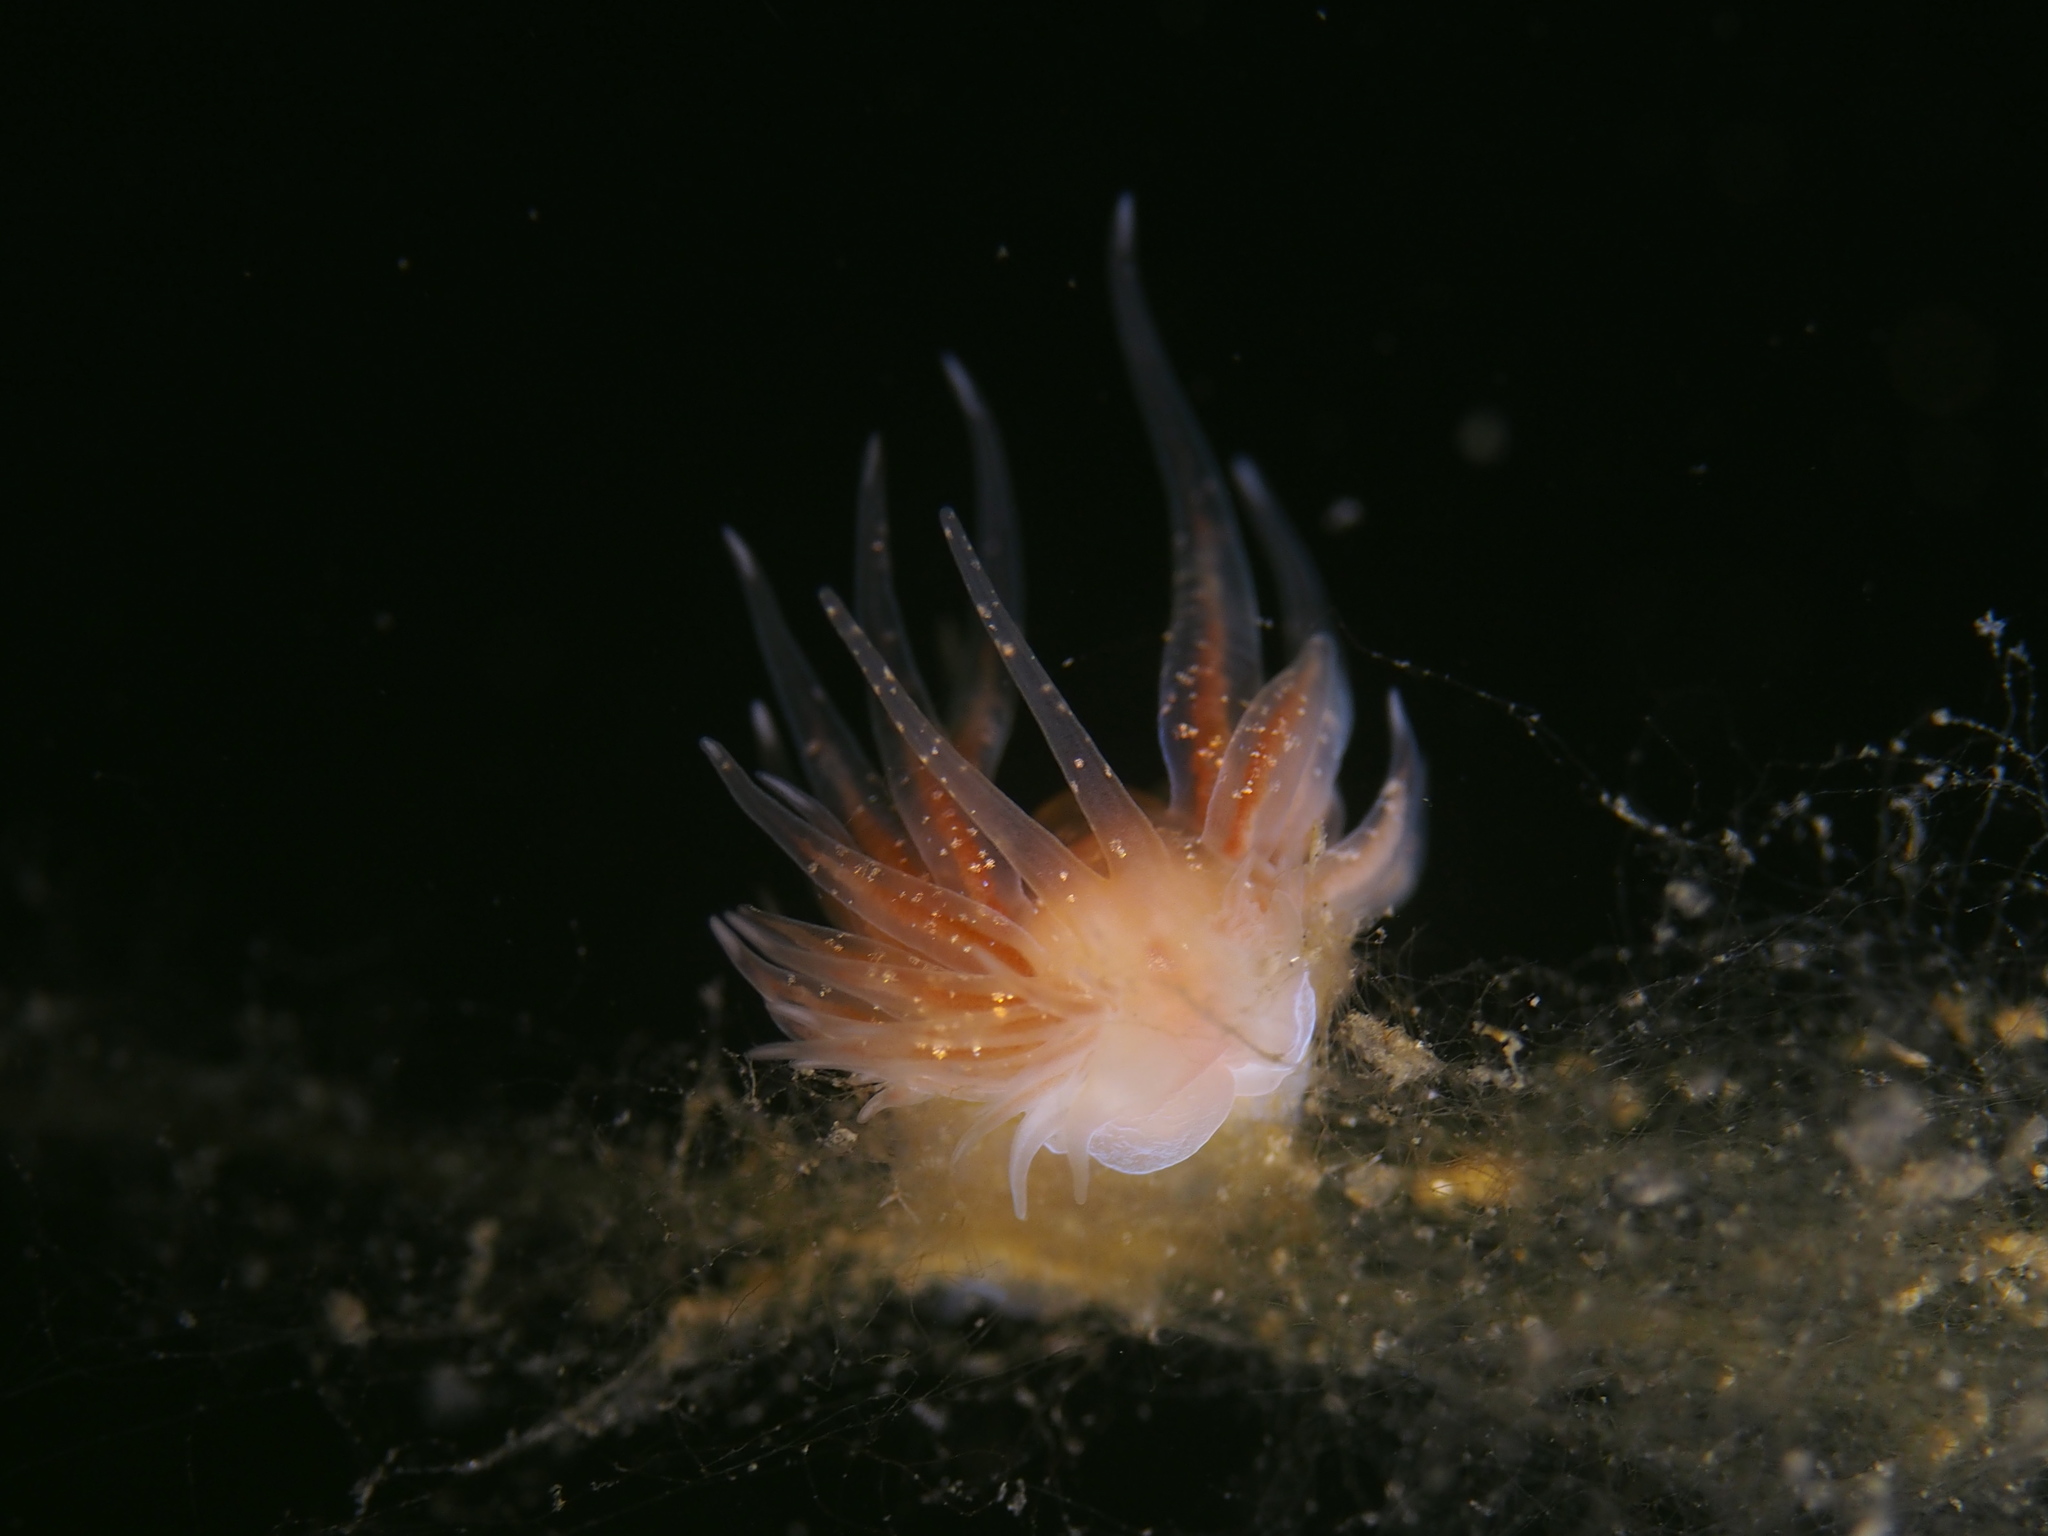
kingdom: Animalia
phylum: Mollusca
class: Gastropoda
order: Nudibranchia
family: Cumanotidae
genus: Cumanotus
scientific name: Cumanotus beaumonti
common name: Polyp aeolis
